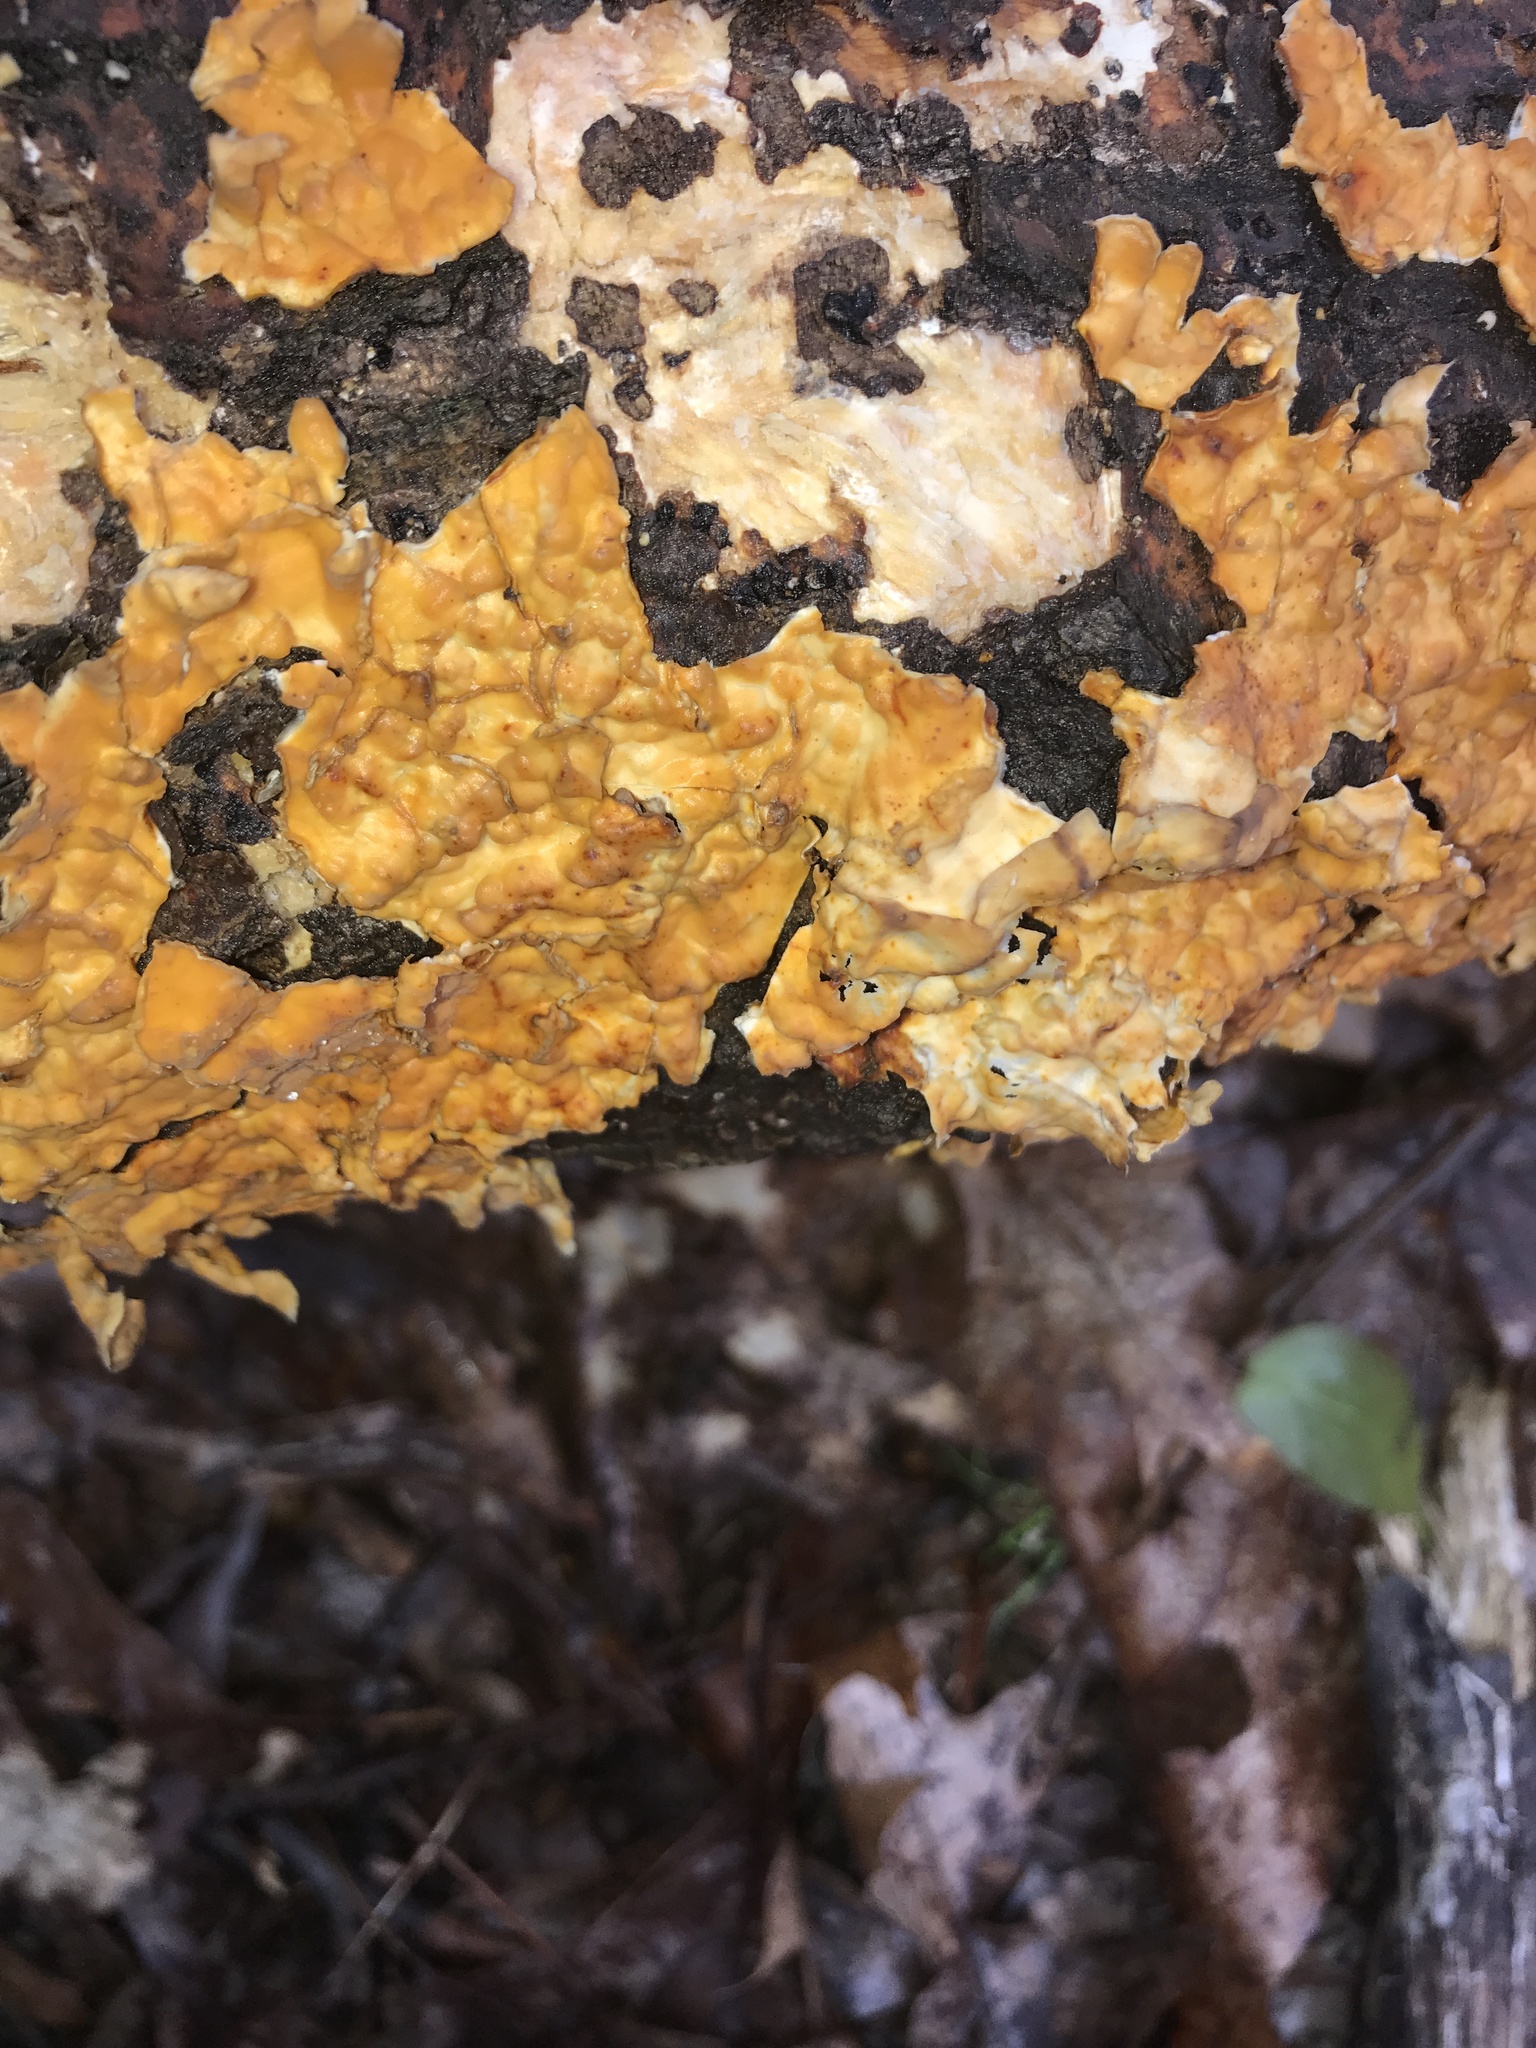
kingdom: Fungi
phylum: Basidiomycota
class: Agaricomycetes
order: Russulales
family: Stereaceae
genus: Stereum
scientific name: Stereum complicatum
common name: Crowded parchment
